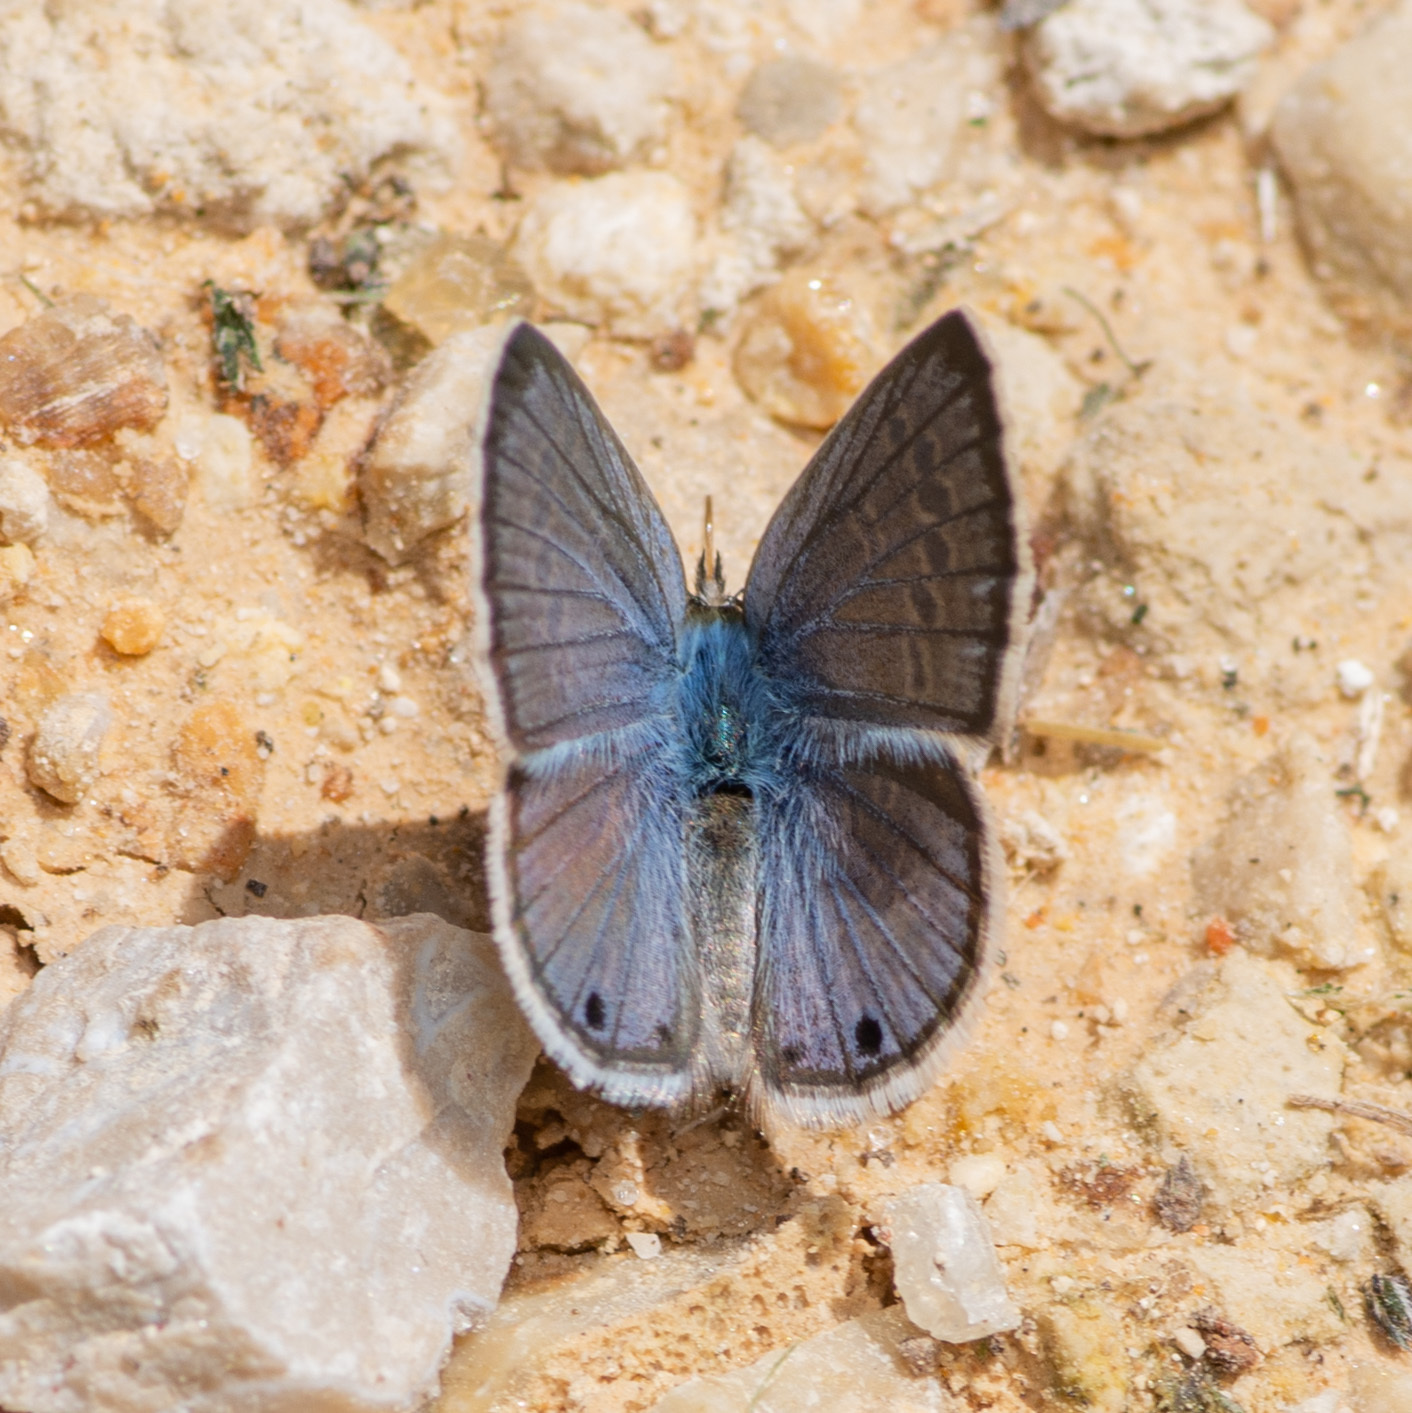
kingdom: Animalia
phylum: Arthropoda
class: Insecta
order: Lepidoptera
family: Lycaenidae
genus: Echinargus
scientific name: Echinargus isola
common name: Reakirt's blue
